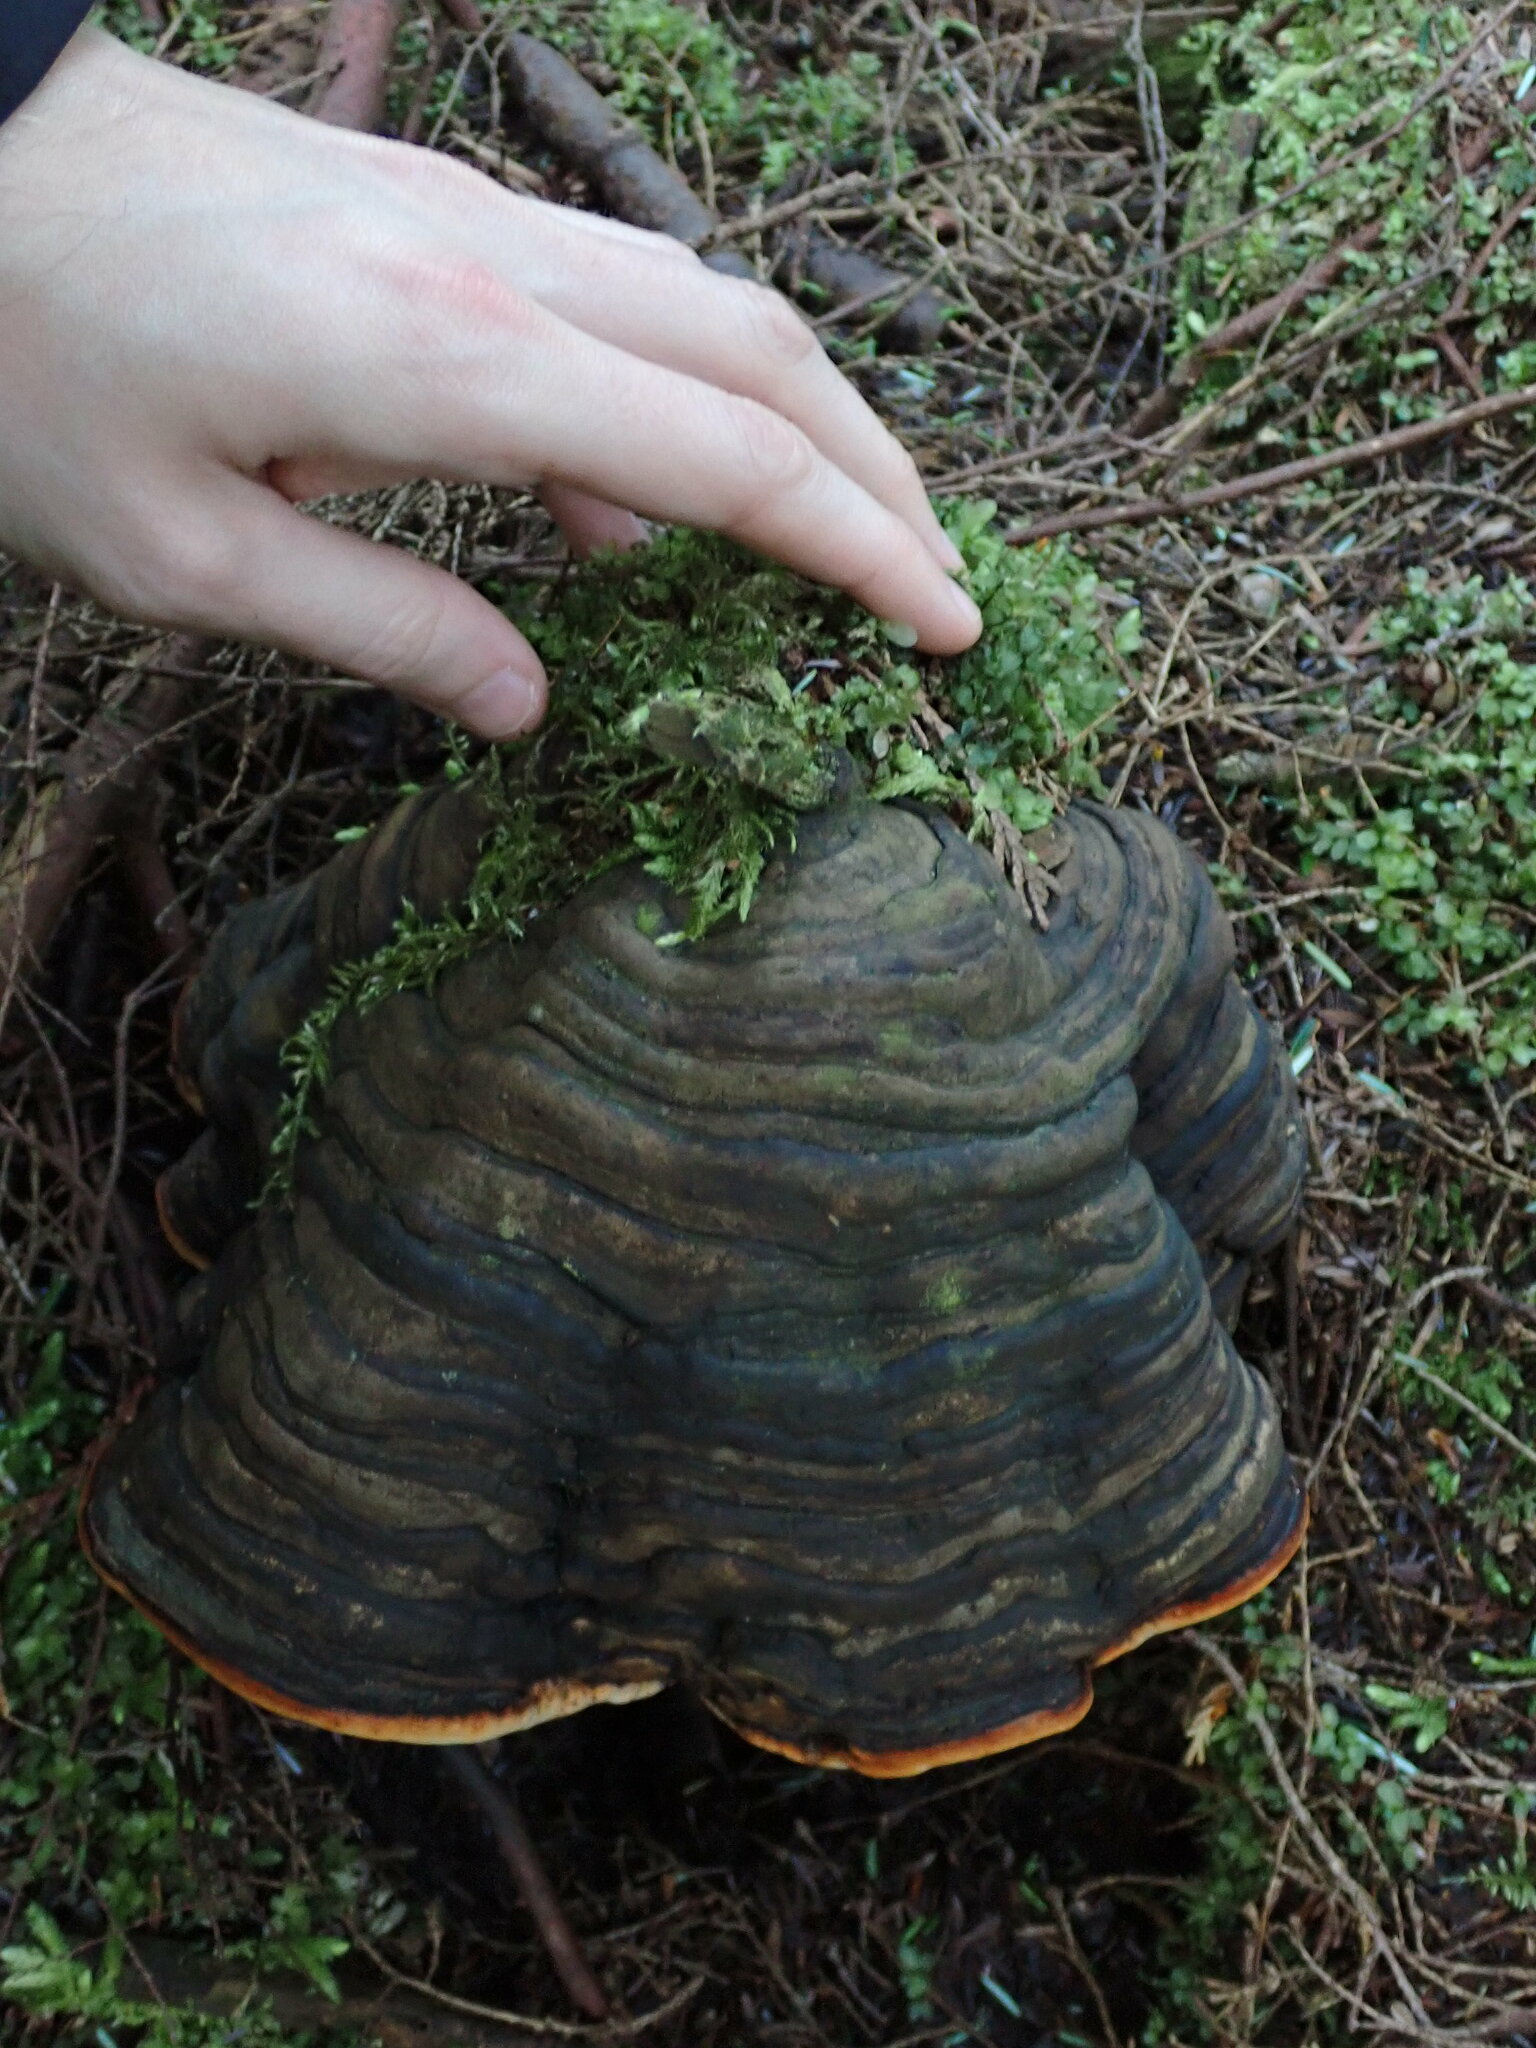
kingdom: Fungi
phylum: Basidiomycota
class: Agaricomycetes
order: Polyporales
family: Fomitopsidaceae
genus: Fomitopsis
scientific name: Fomitopsis mounceae
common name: Northern red belt
